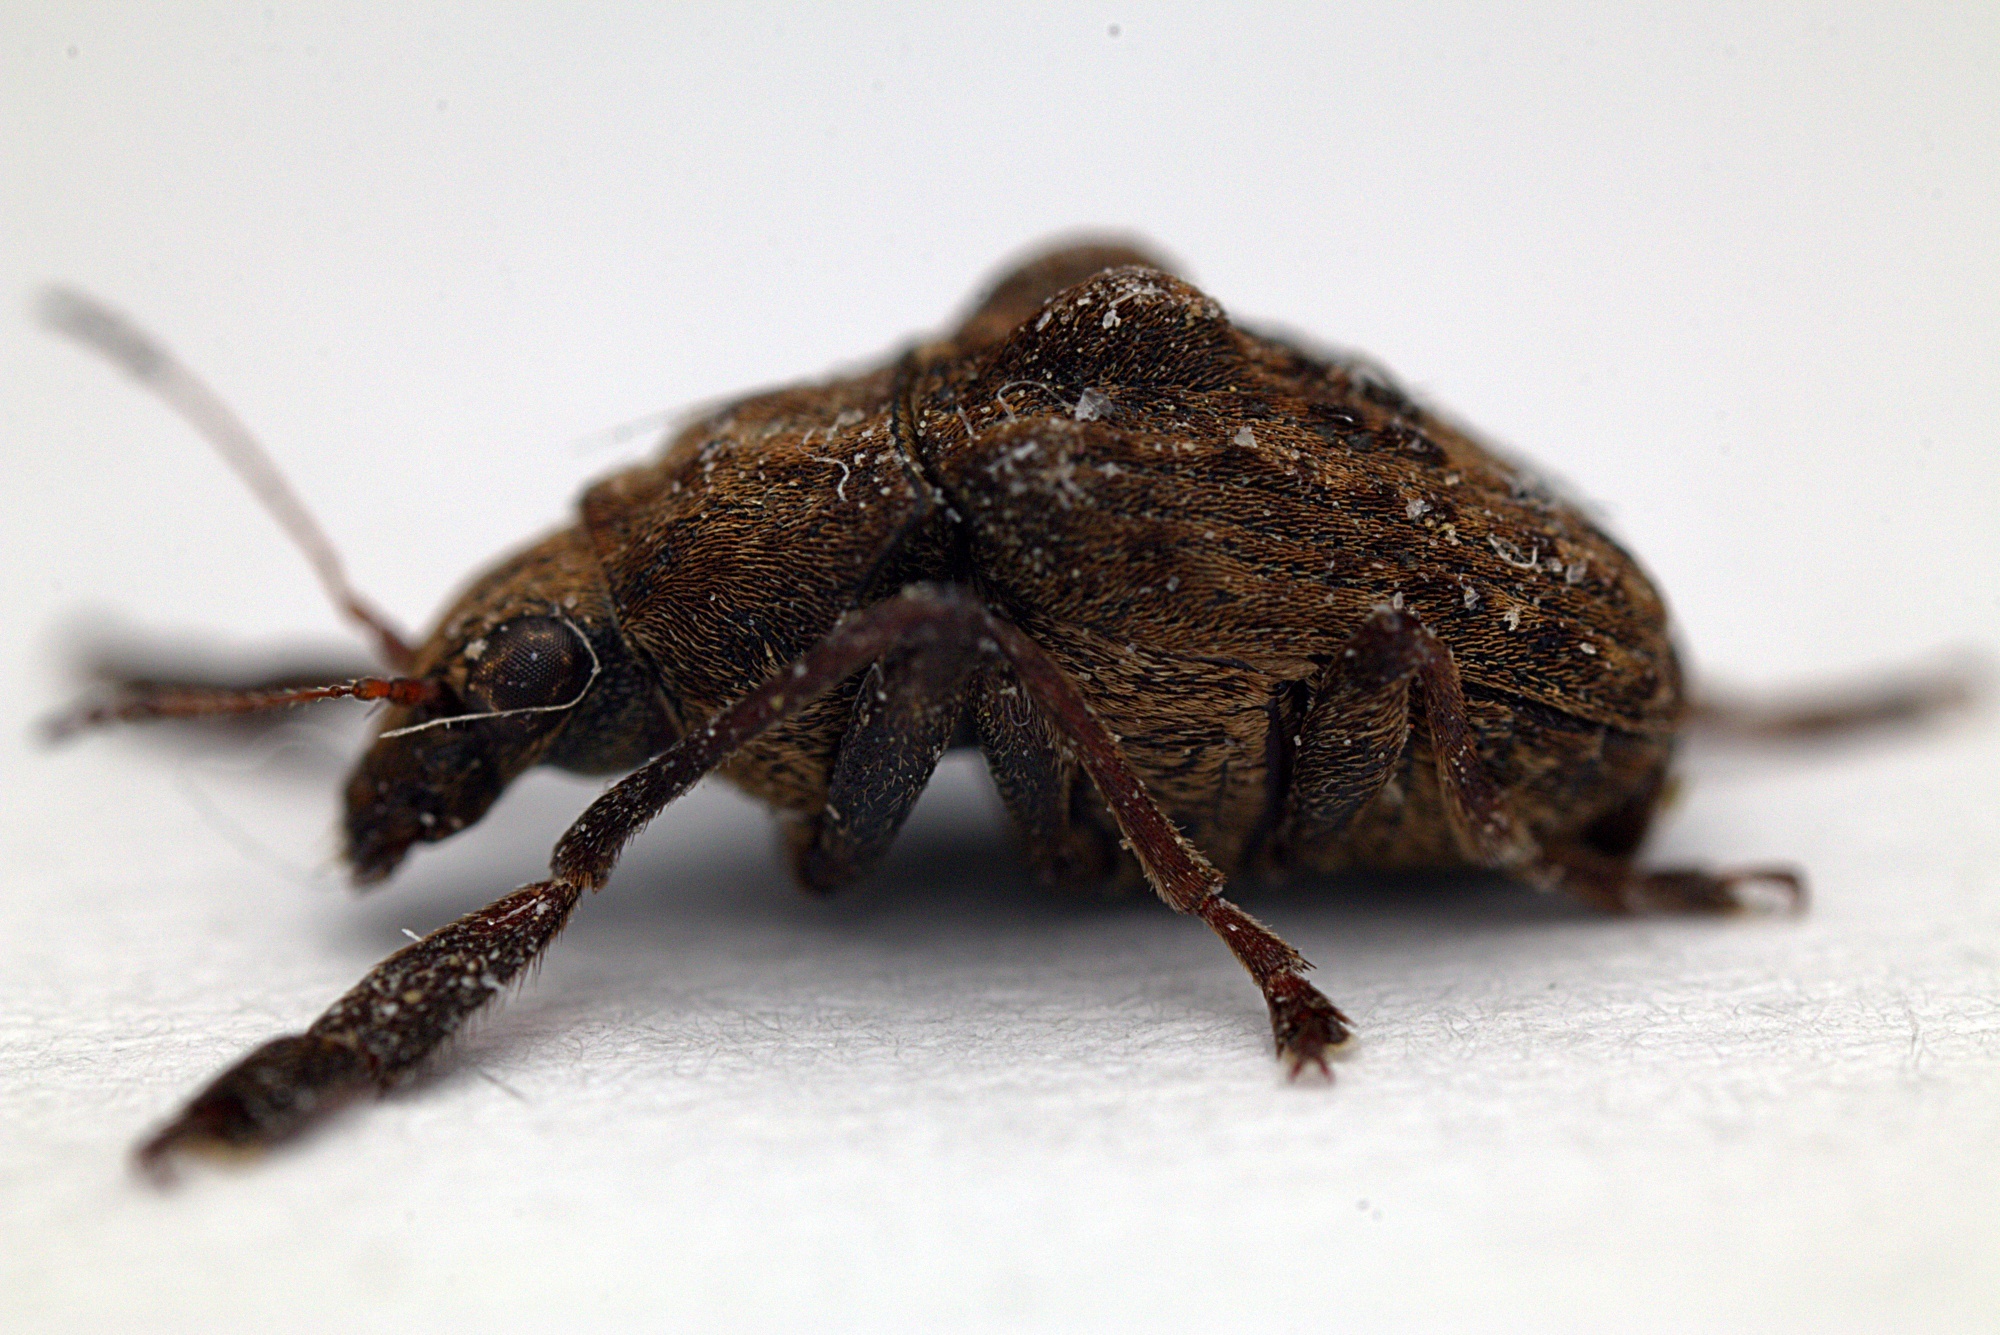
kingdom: Animalia
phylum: Arthropoda
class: Insecta
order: Coleoptera
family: Anthribidae
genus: Araecerus
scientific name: Araecerus
